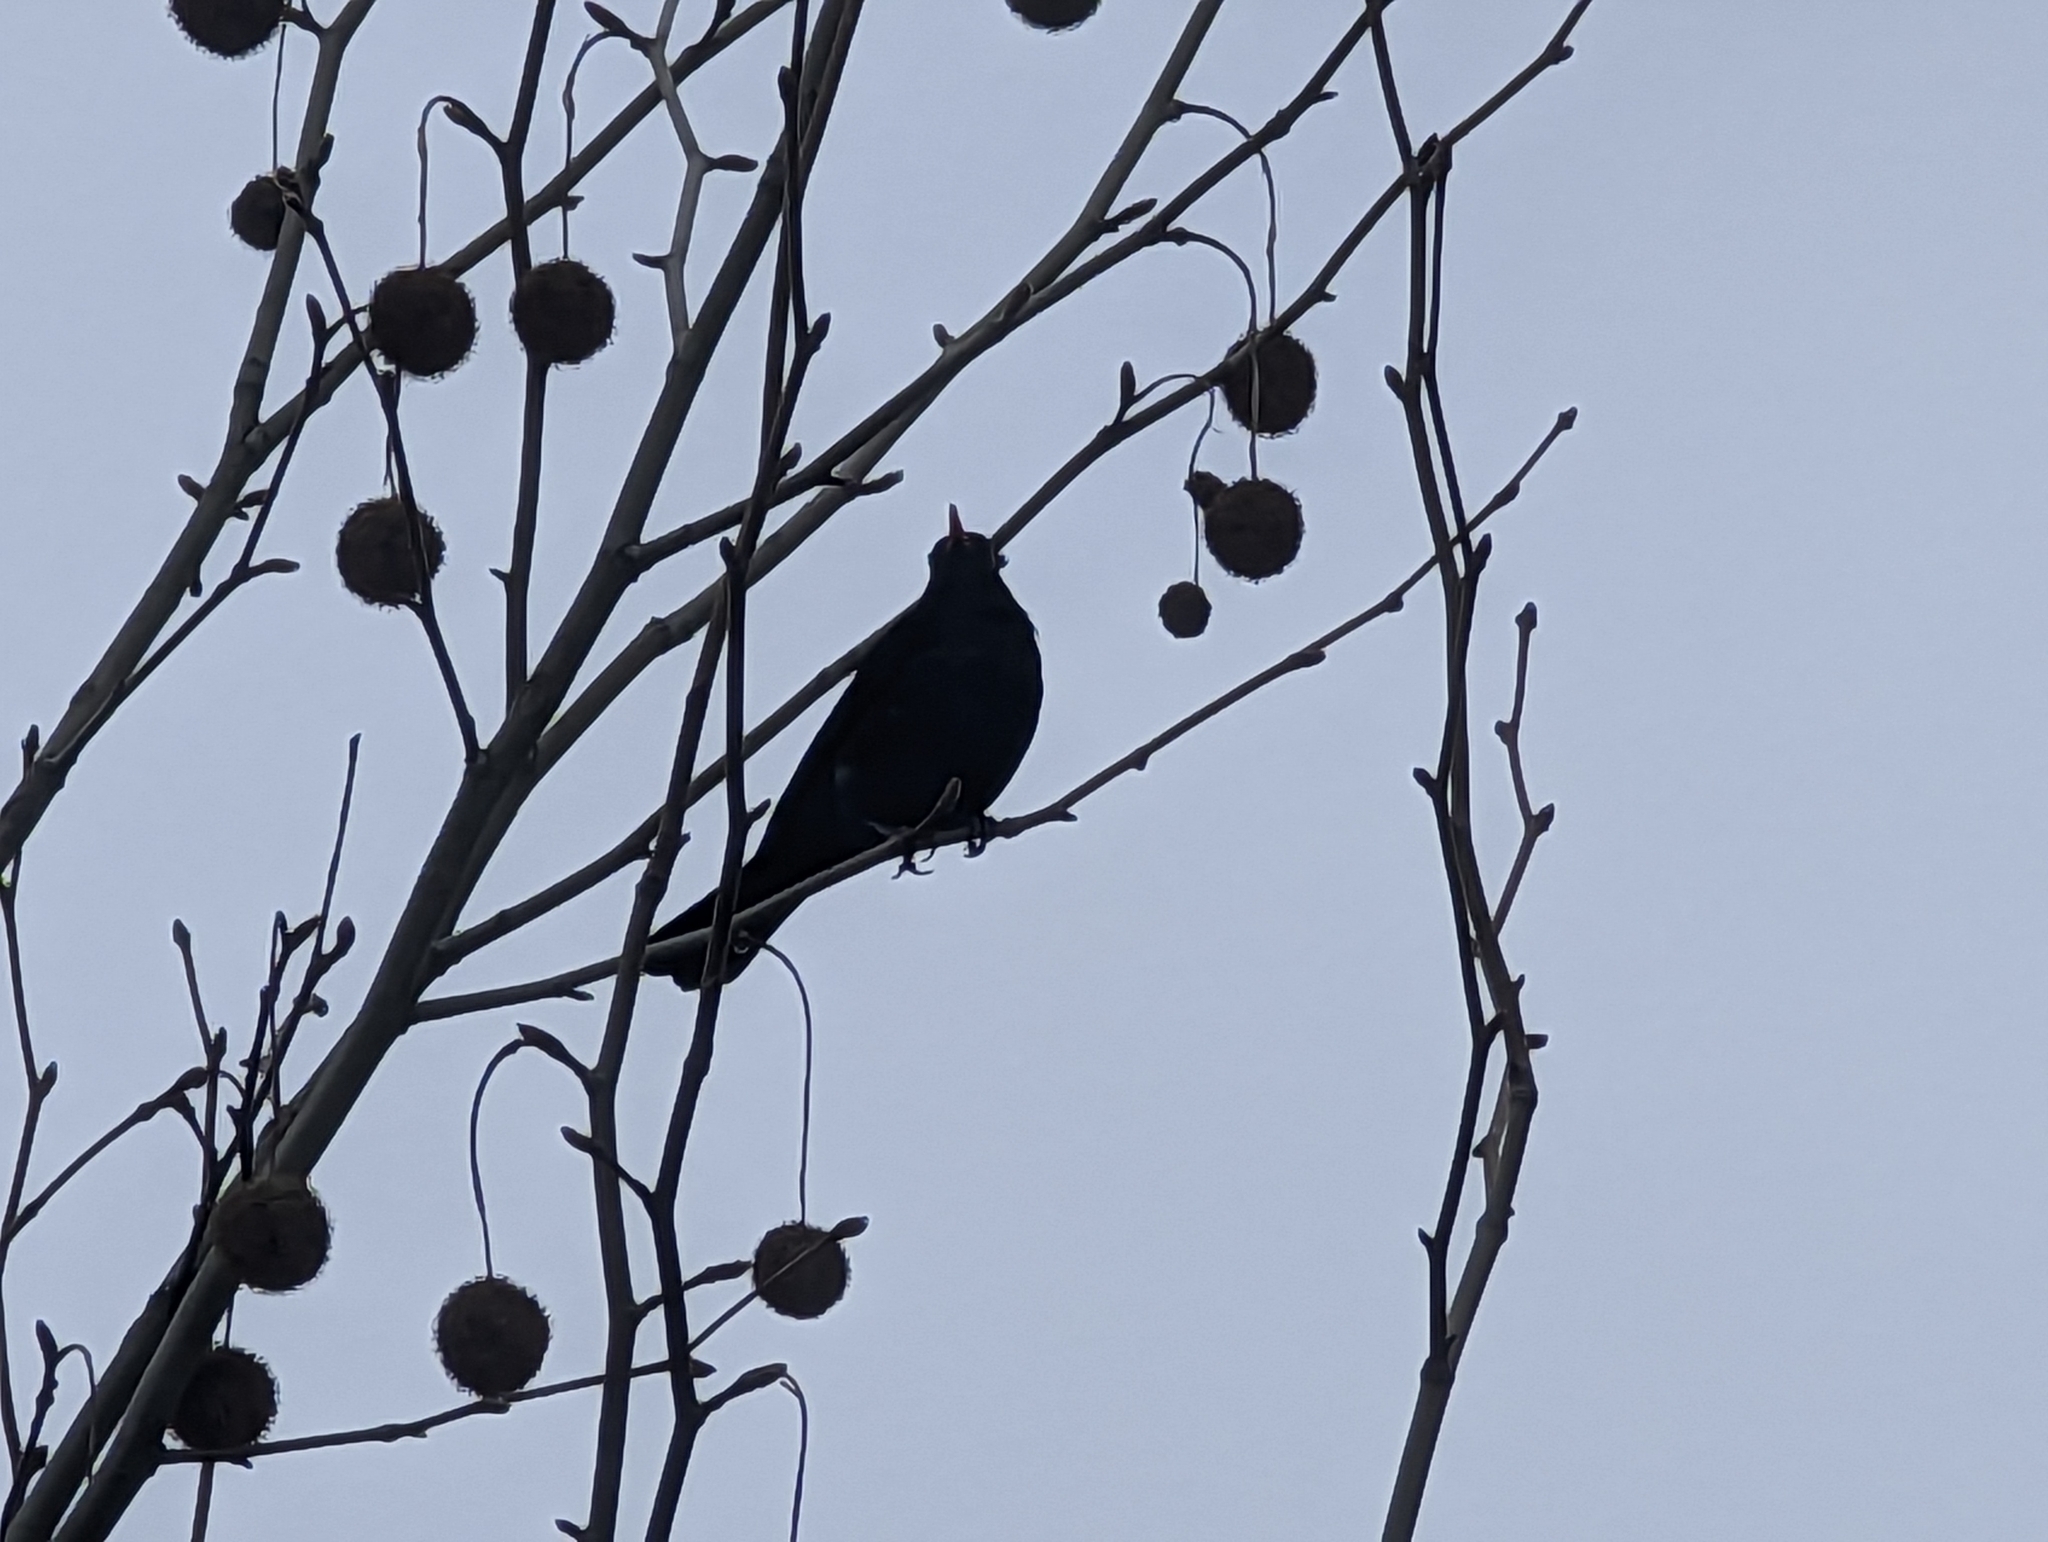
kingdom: Animalia
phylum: Chordata
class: Aves
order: Passeriformes
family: Turdidae
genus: Turdus
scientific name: Turdus merula
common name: Common blackbird
